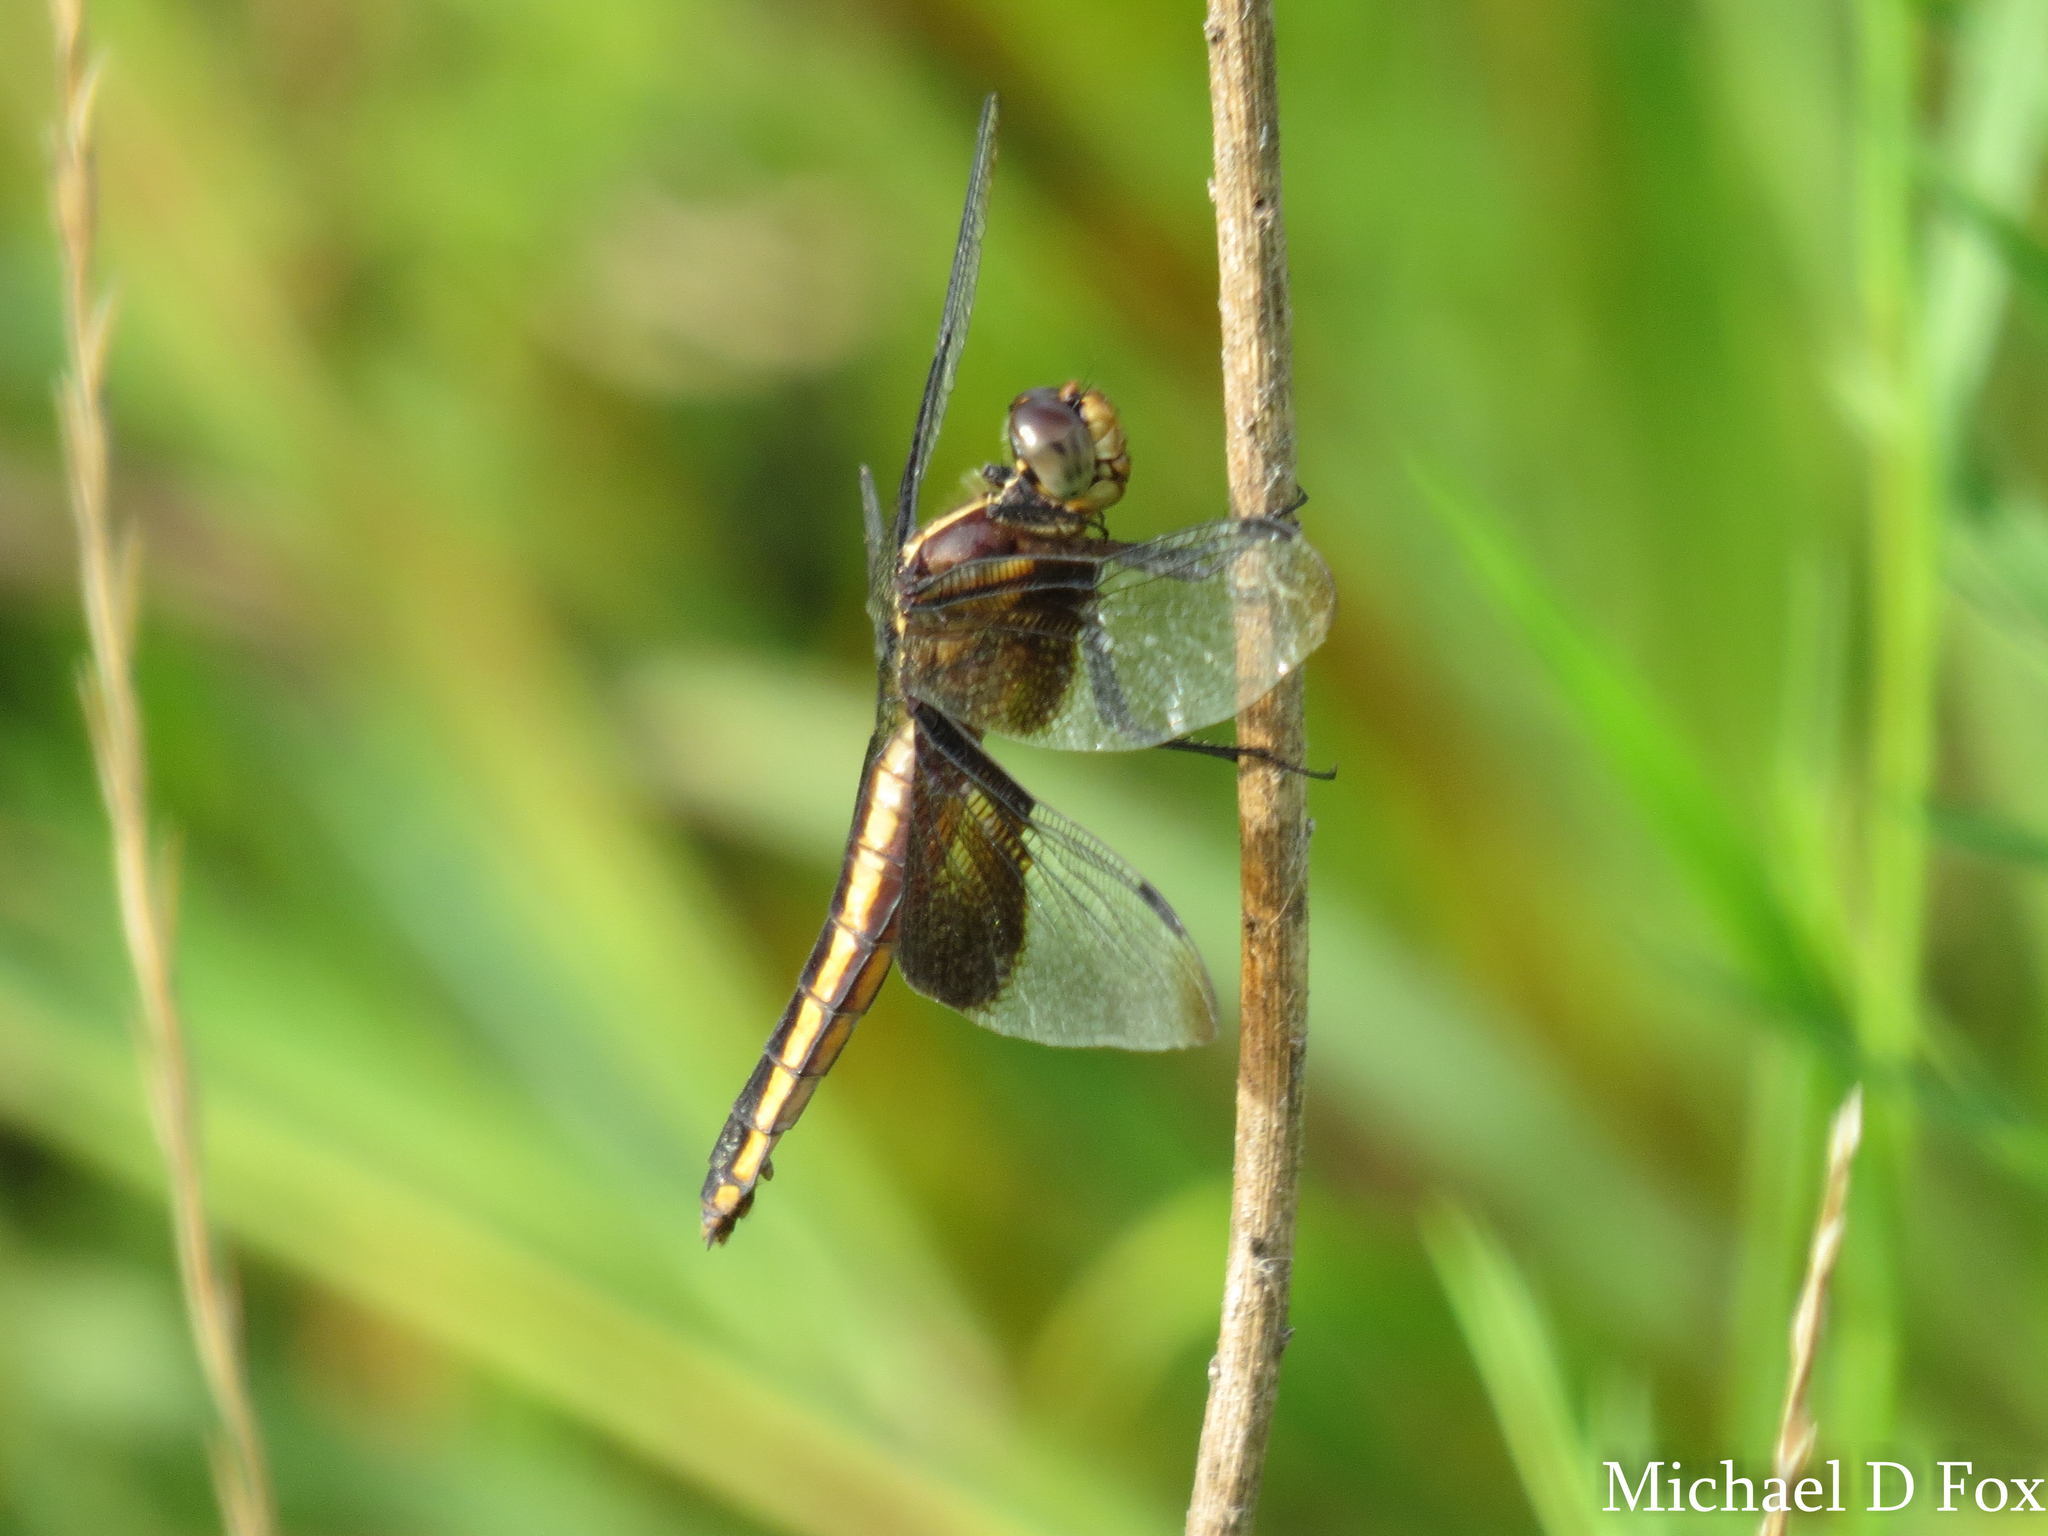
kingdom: Animalia
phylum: Arthropoda
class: Insecta
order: Odonata
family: Libellulidae
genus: Libellula
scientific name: Libellula luctuosa
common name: Widow skimmer
